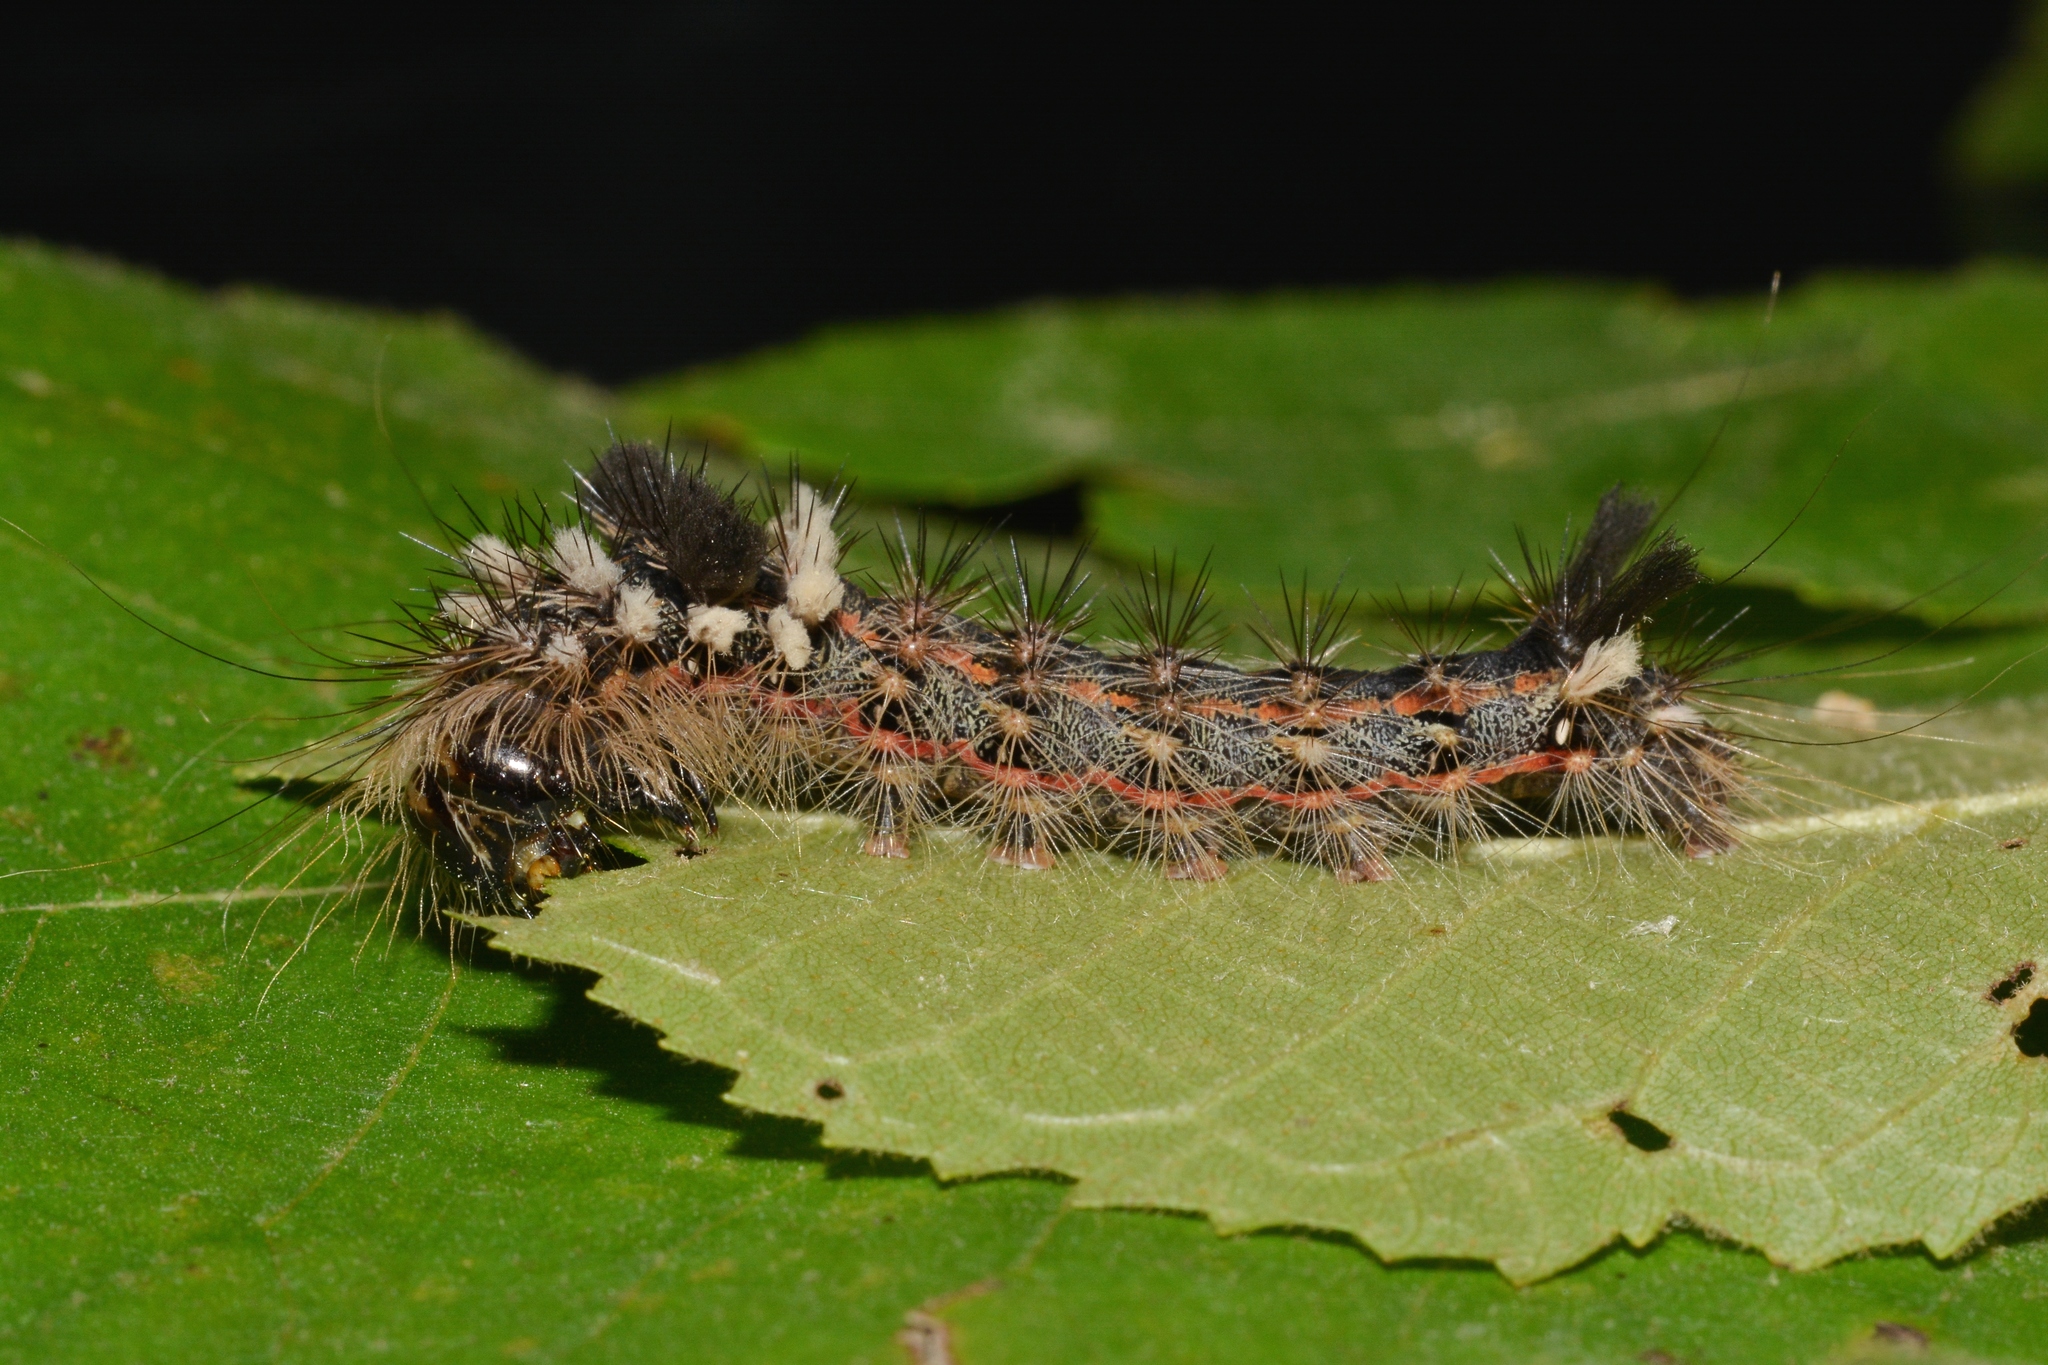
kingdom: Animalia
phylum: Arthropoda
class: Insecta
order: Lepidoptera
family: Noctuidae
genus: Acronicta
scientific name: Acronicta impleta
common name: Powdered dagger
